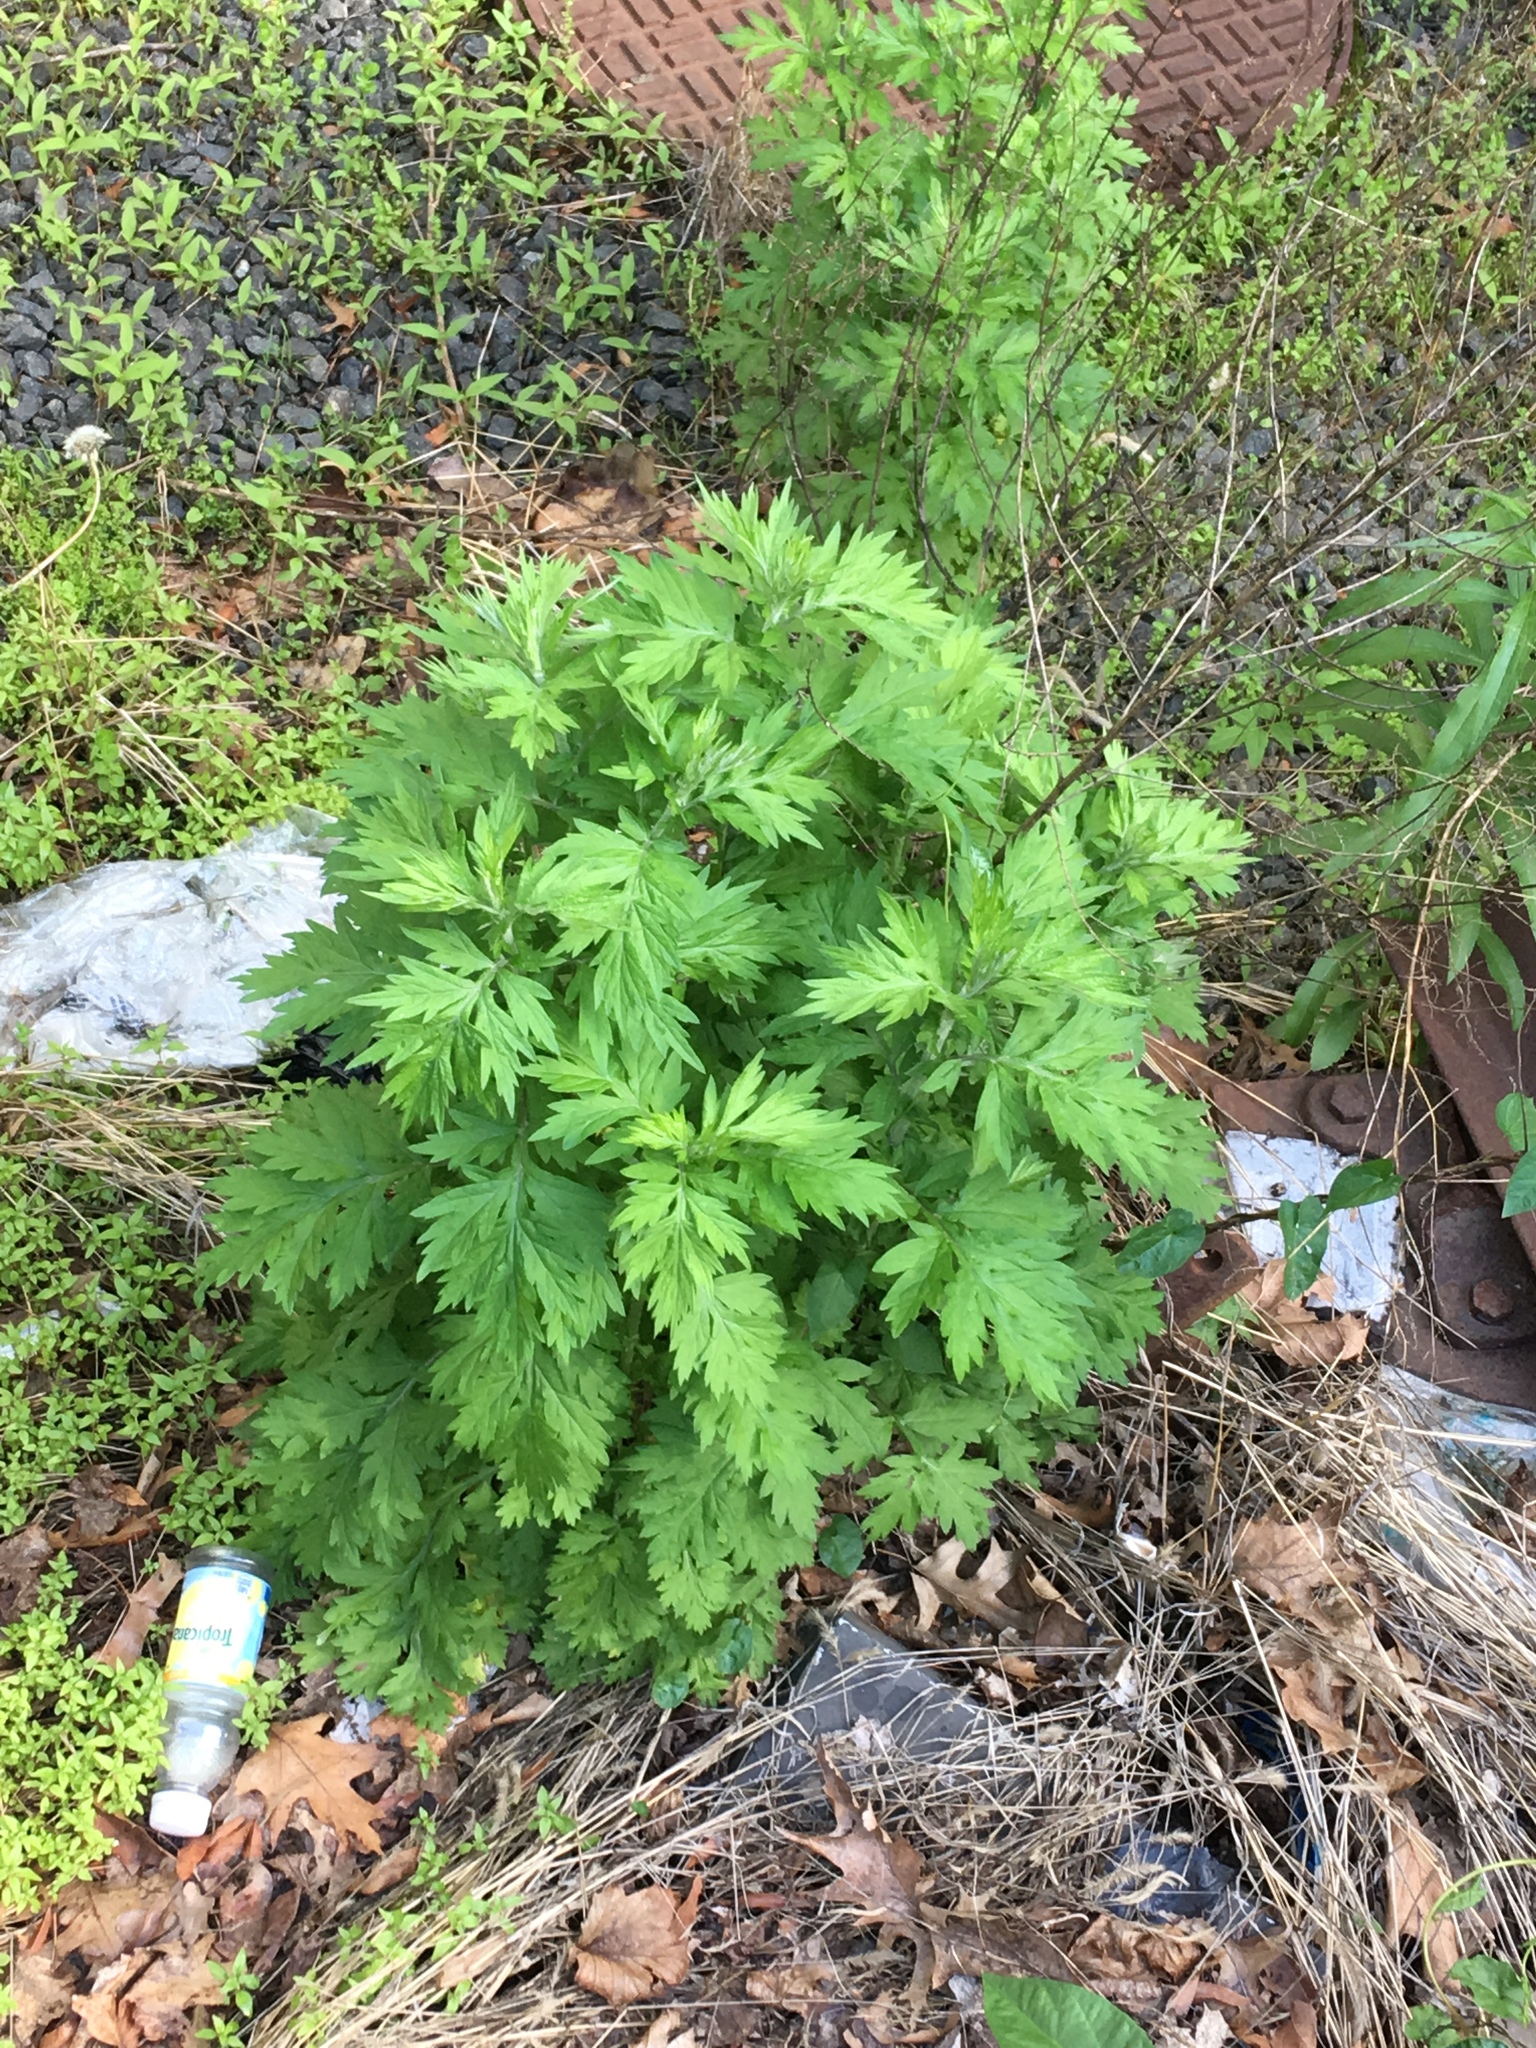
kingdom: Plantae
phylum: Tracheophyta
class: Magnoliopsida
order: Asterales
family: Asteraceae
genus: Artemisia
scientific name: Artemisia vulgaris
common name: Mugwort
